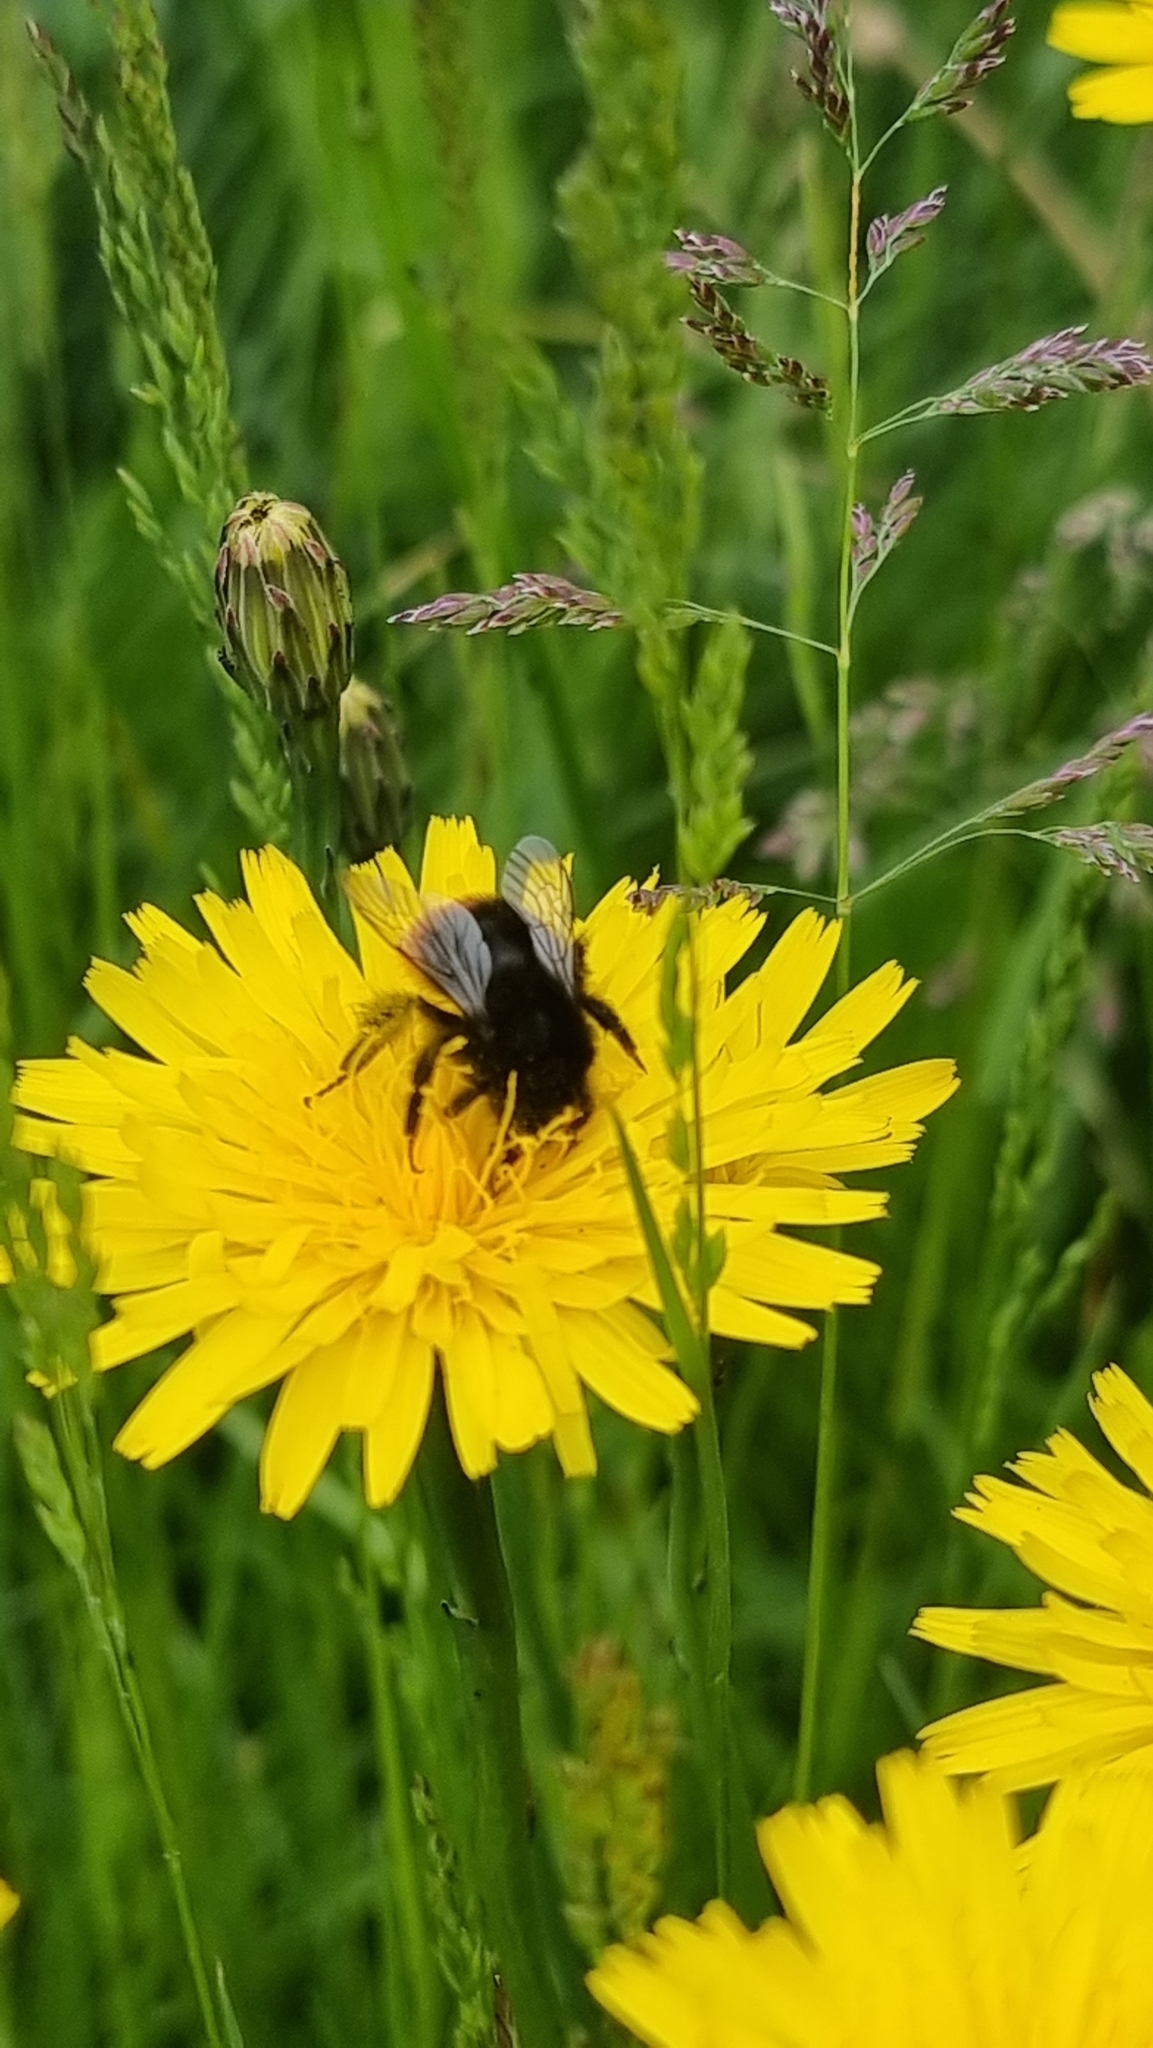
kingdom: Animalia
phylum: Arthropoda
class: Insecta
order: Hymenoptera
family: Apidae
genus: Bombus
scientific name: Bombus lapidarius
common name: Large red-tailed humble-bee
